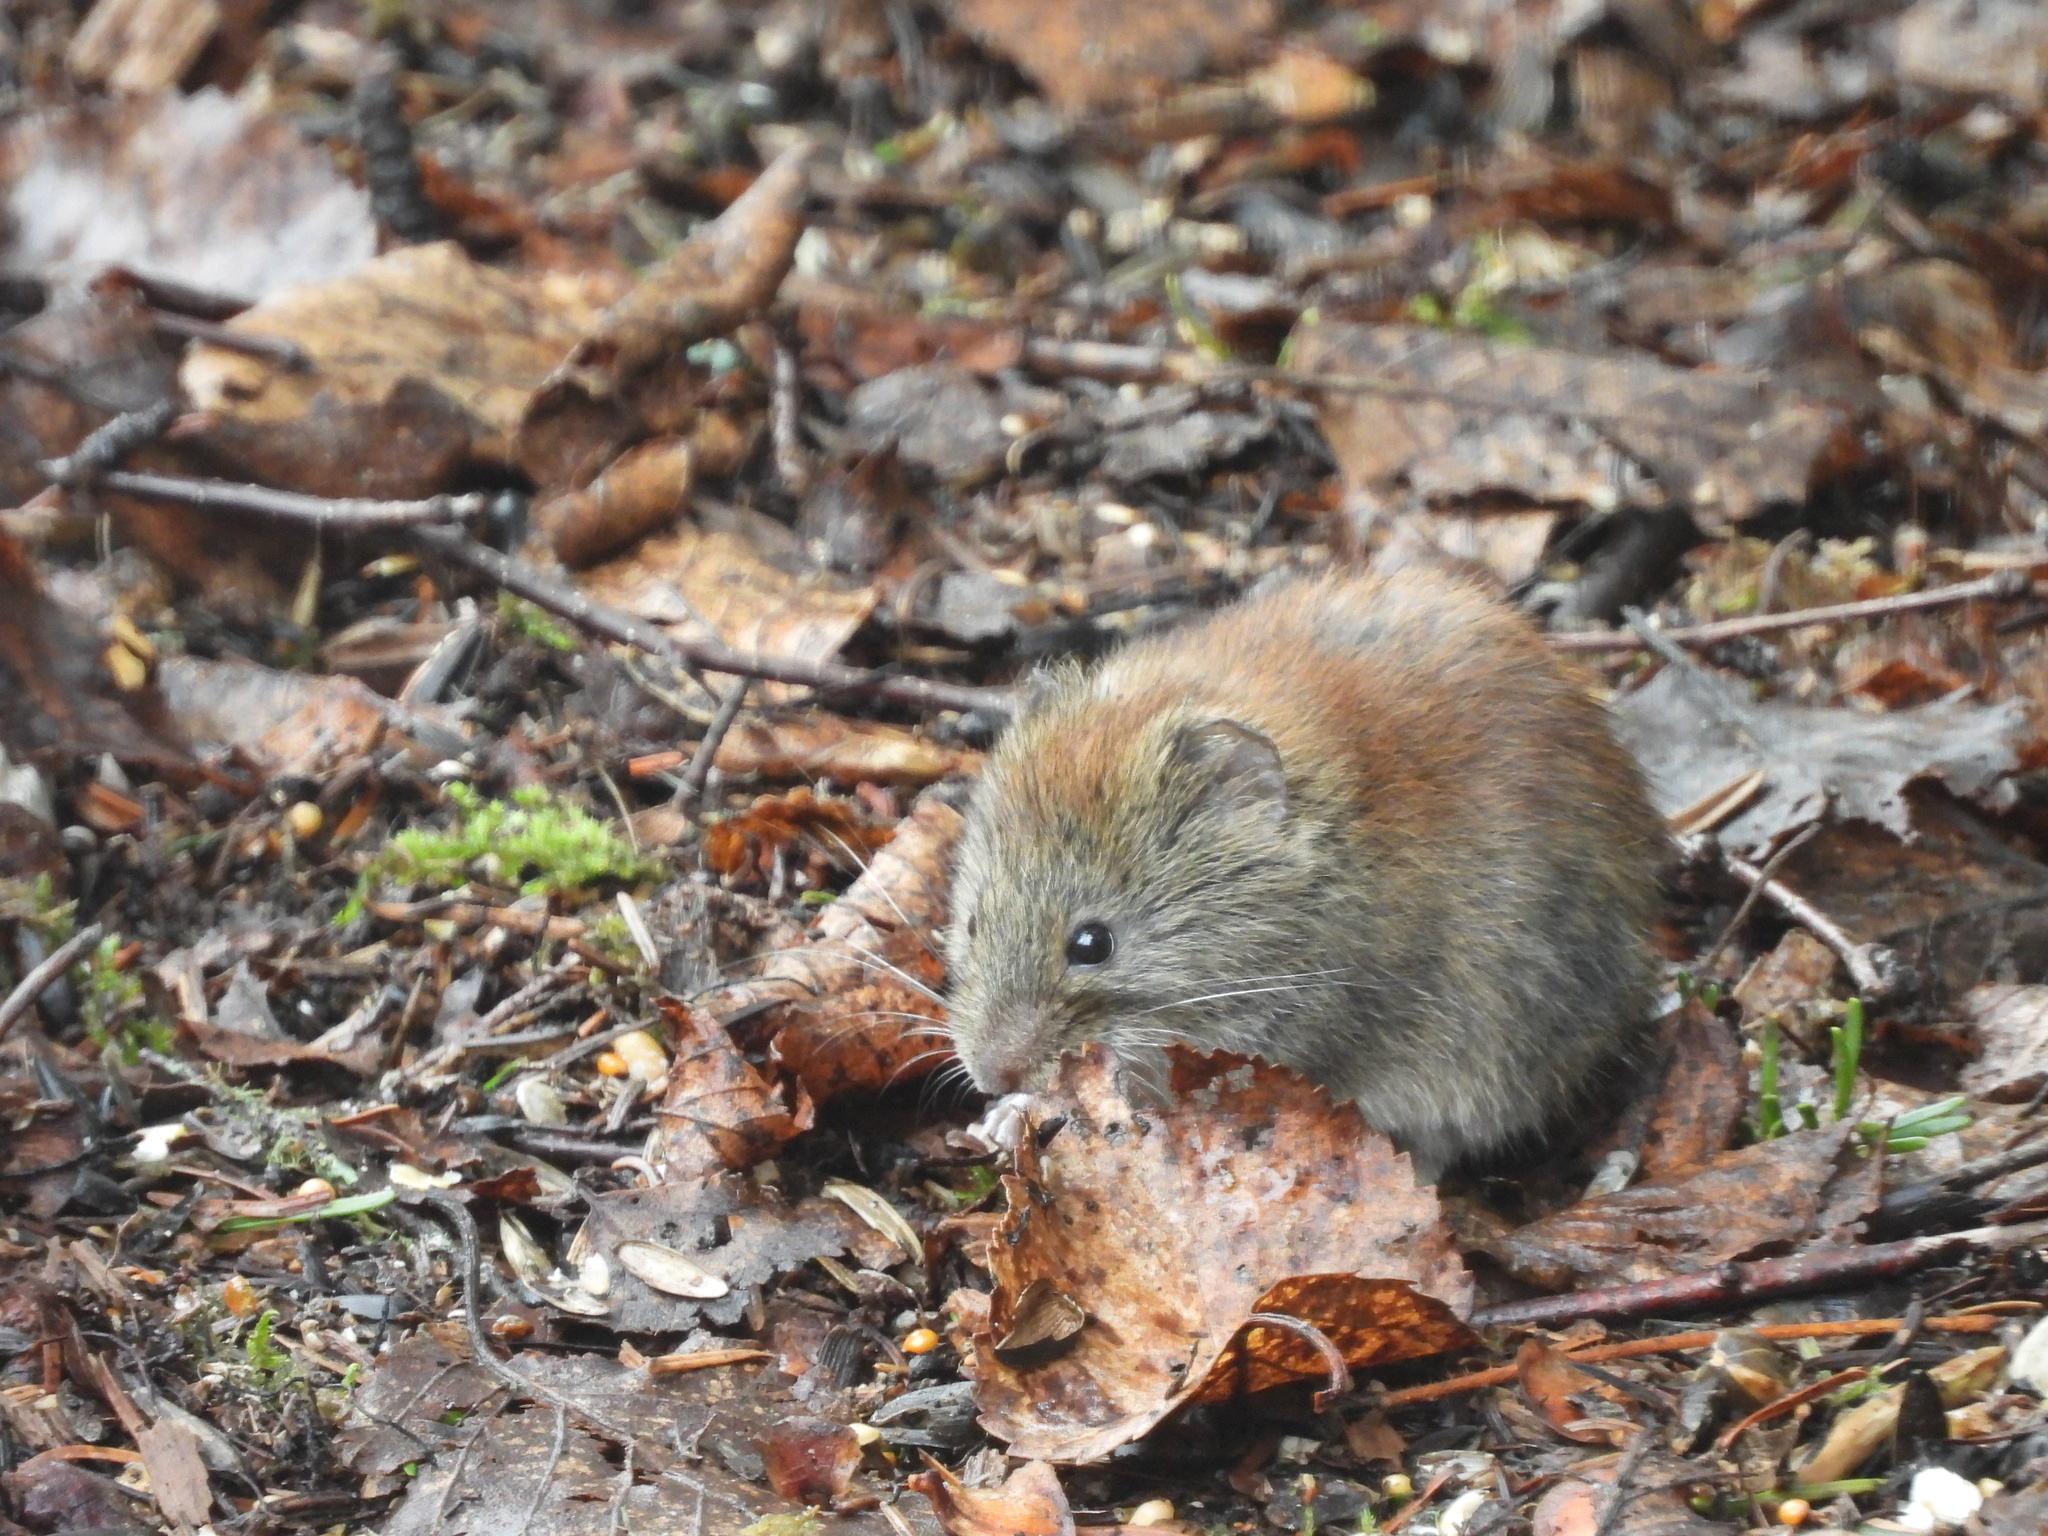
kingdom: Animalia
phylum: Chordata
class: Mammalia
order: Rodentia
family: Cricetidae
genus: Myodes
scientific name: Myodes gapperi
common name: Southern red-backed vole
